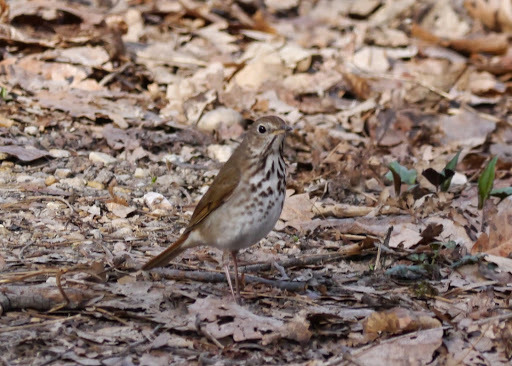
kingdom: Animalia
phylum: Chordata
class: Aves
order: Passeriformes
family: Turdidae
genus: Catharus
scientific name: Catharus guttatus
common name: Hermit thrush
